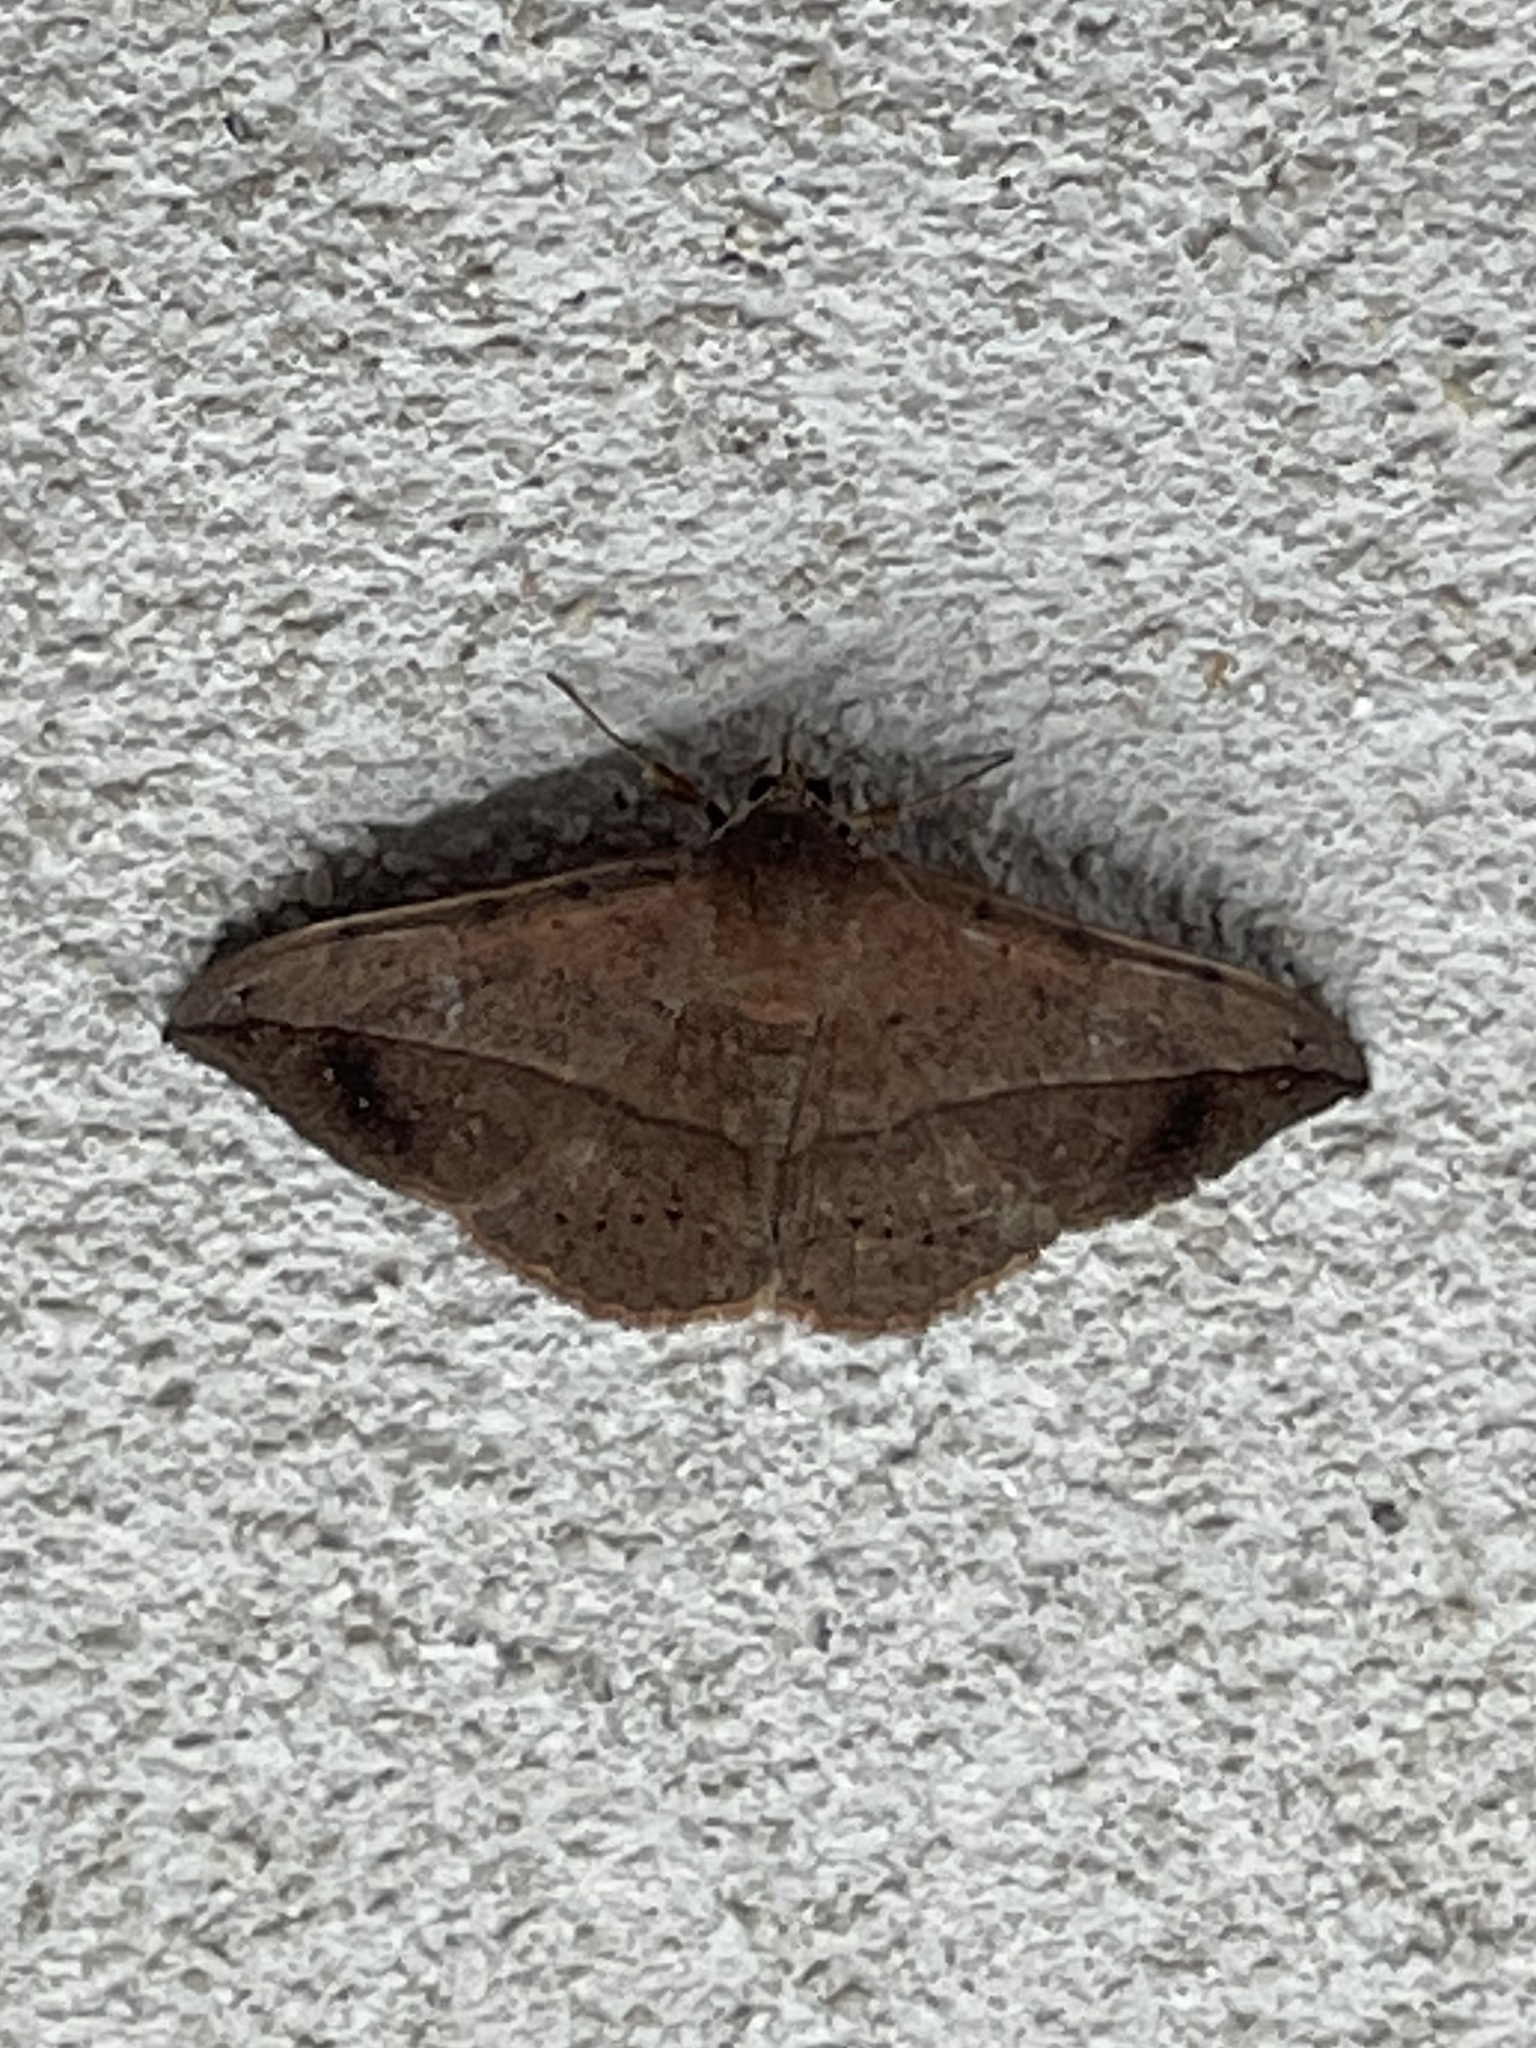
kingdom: Animalia
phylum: Arthropoda
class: Insecta
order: Lepidoptera
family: Erebidae
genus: Anticarsia
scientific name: Anticarsia gemmatalis
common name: Cutworm moth
